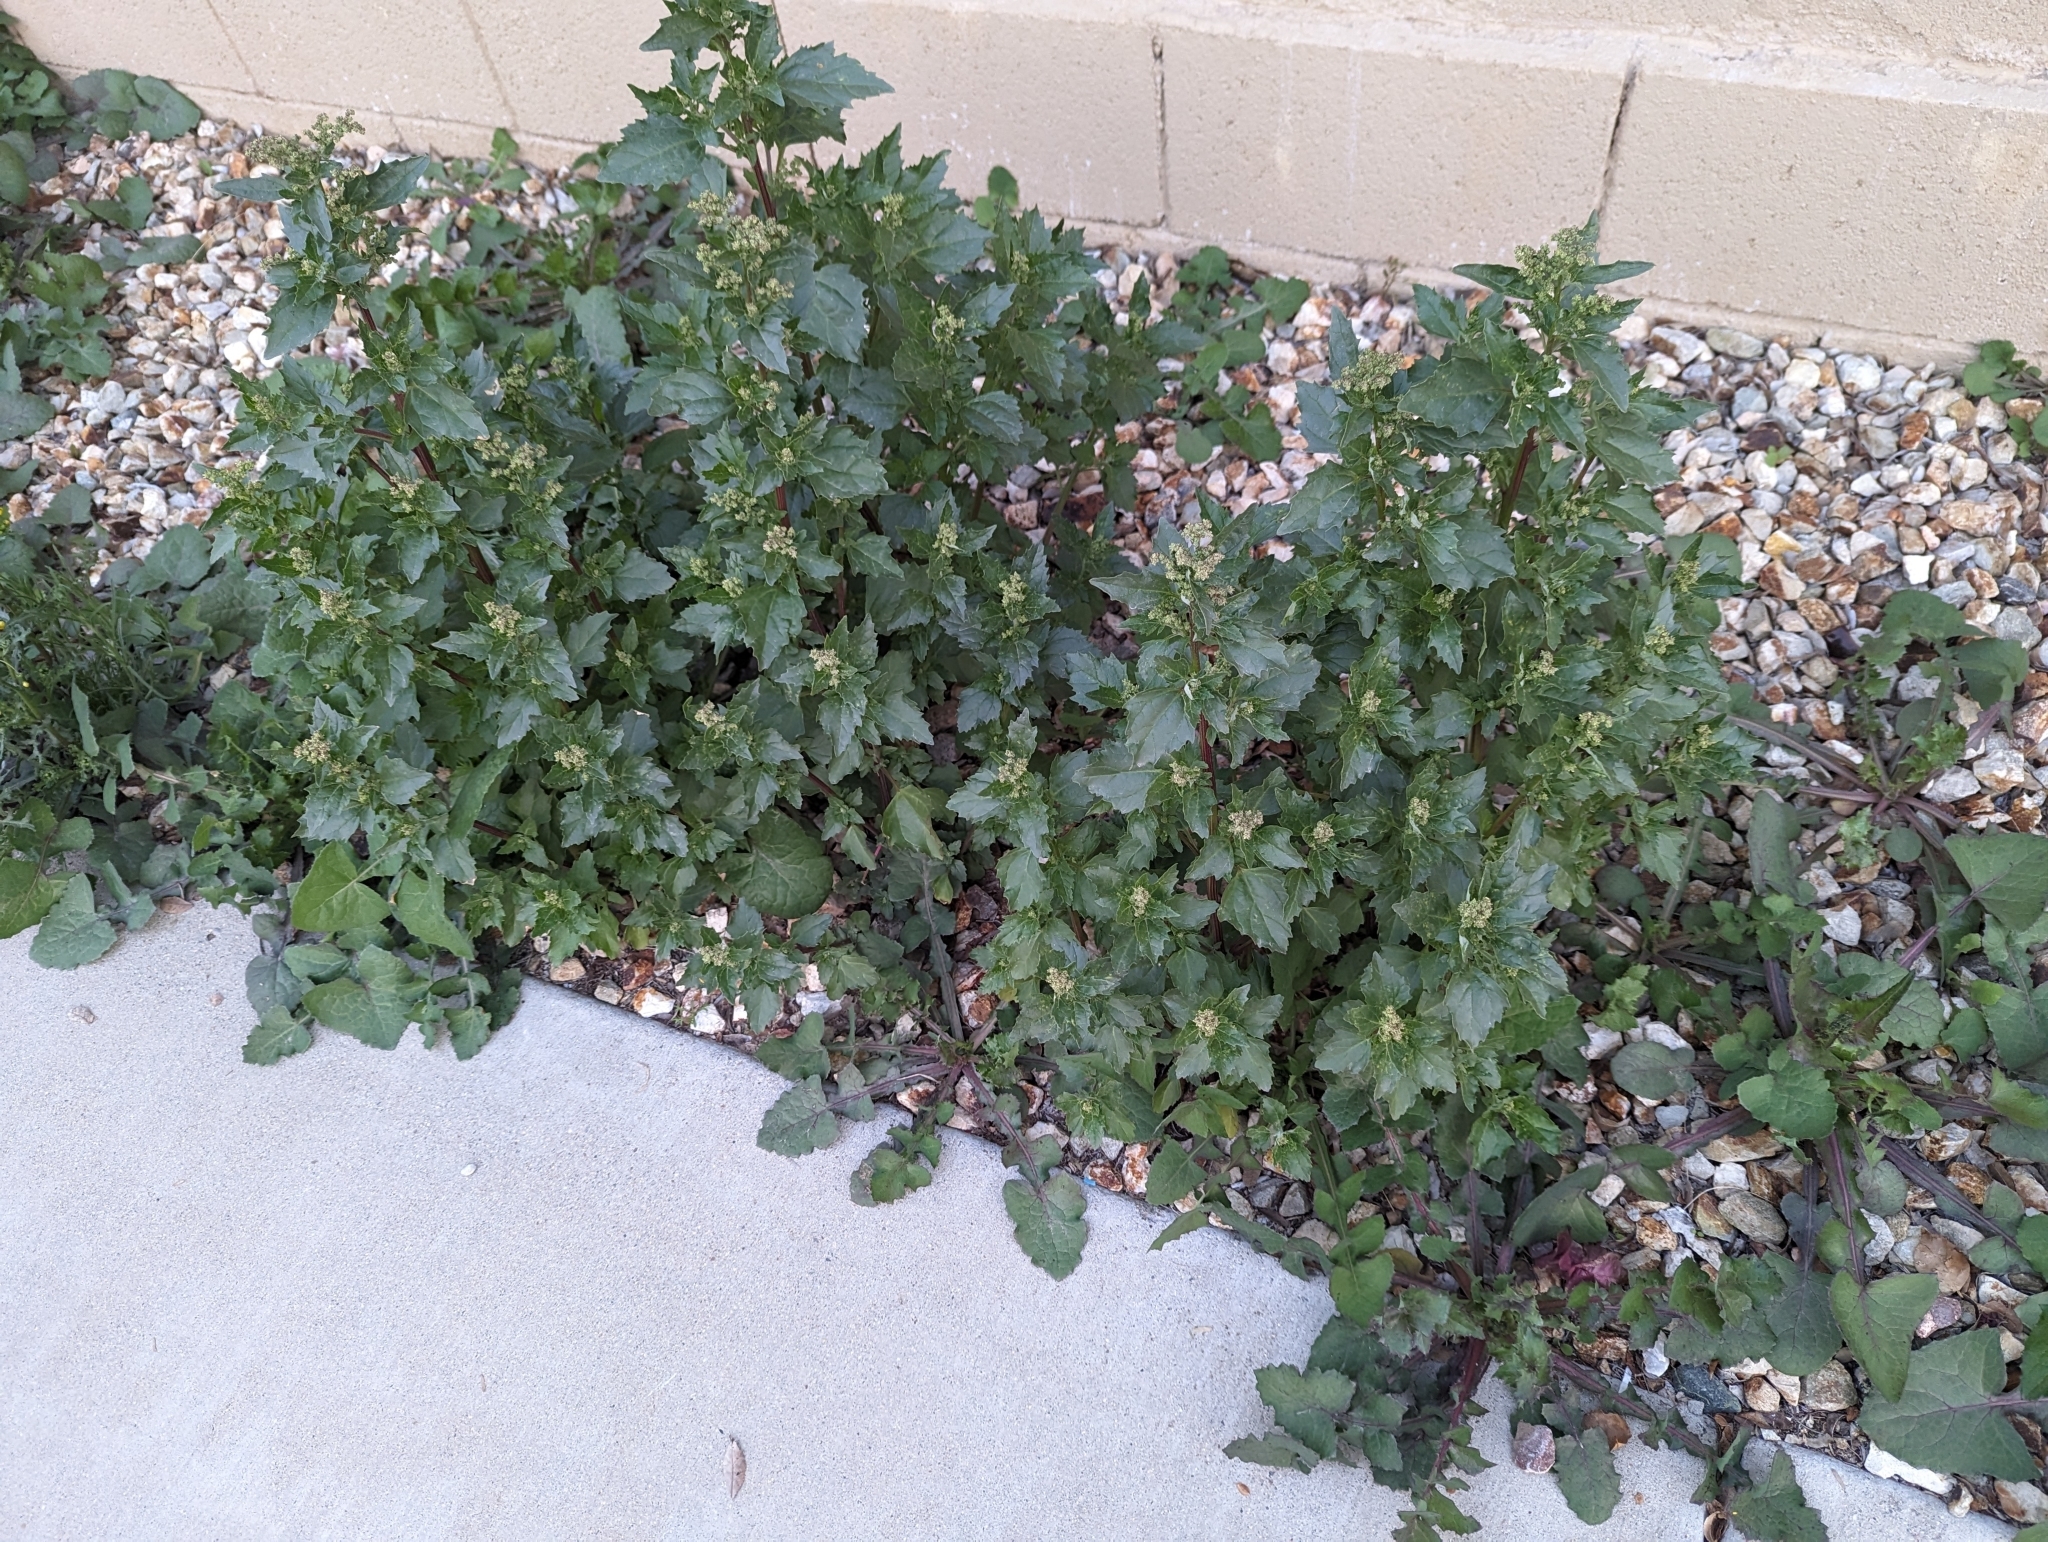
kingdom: Plantae
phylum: Tracheophyta
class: Magnoliopsida
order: Caryophyllales
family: Amaranthaceae
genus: Chenopodiastrum
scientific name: Chenopodiastrum murale
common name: Sowbane
